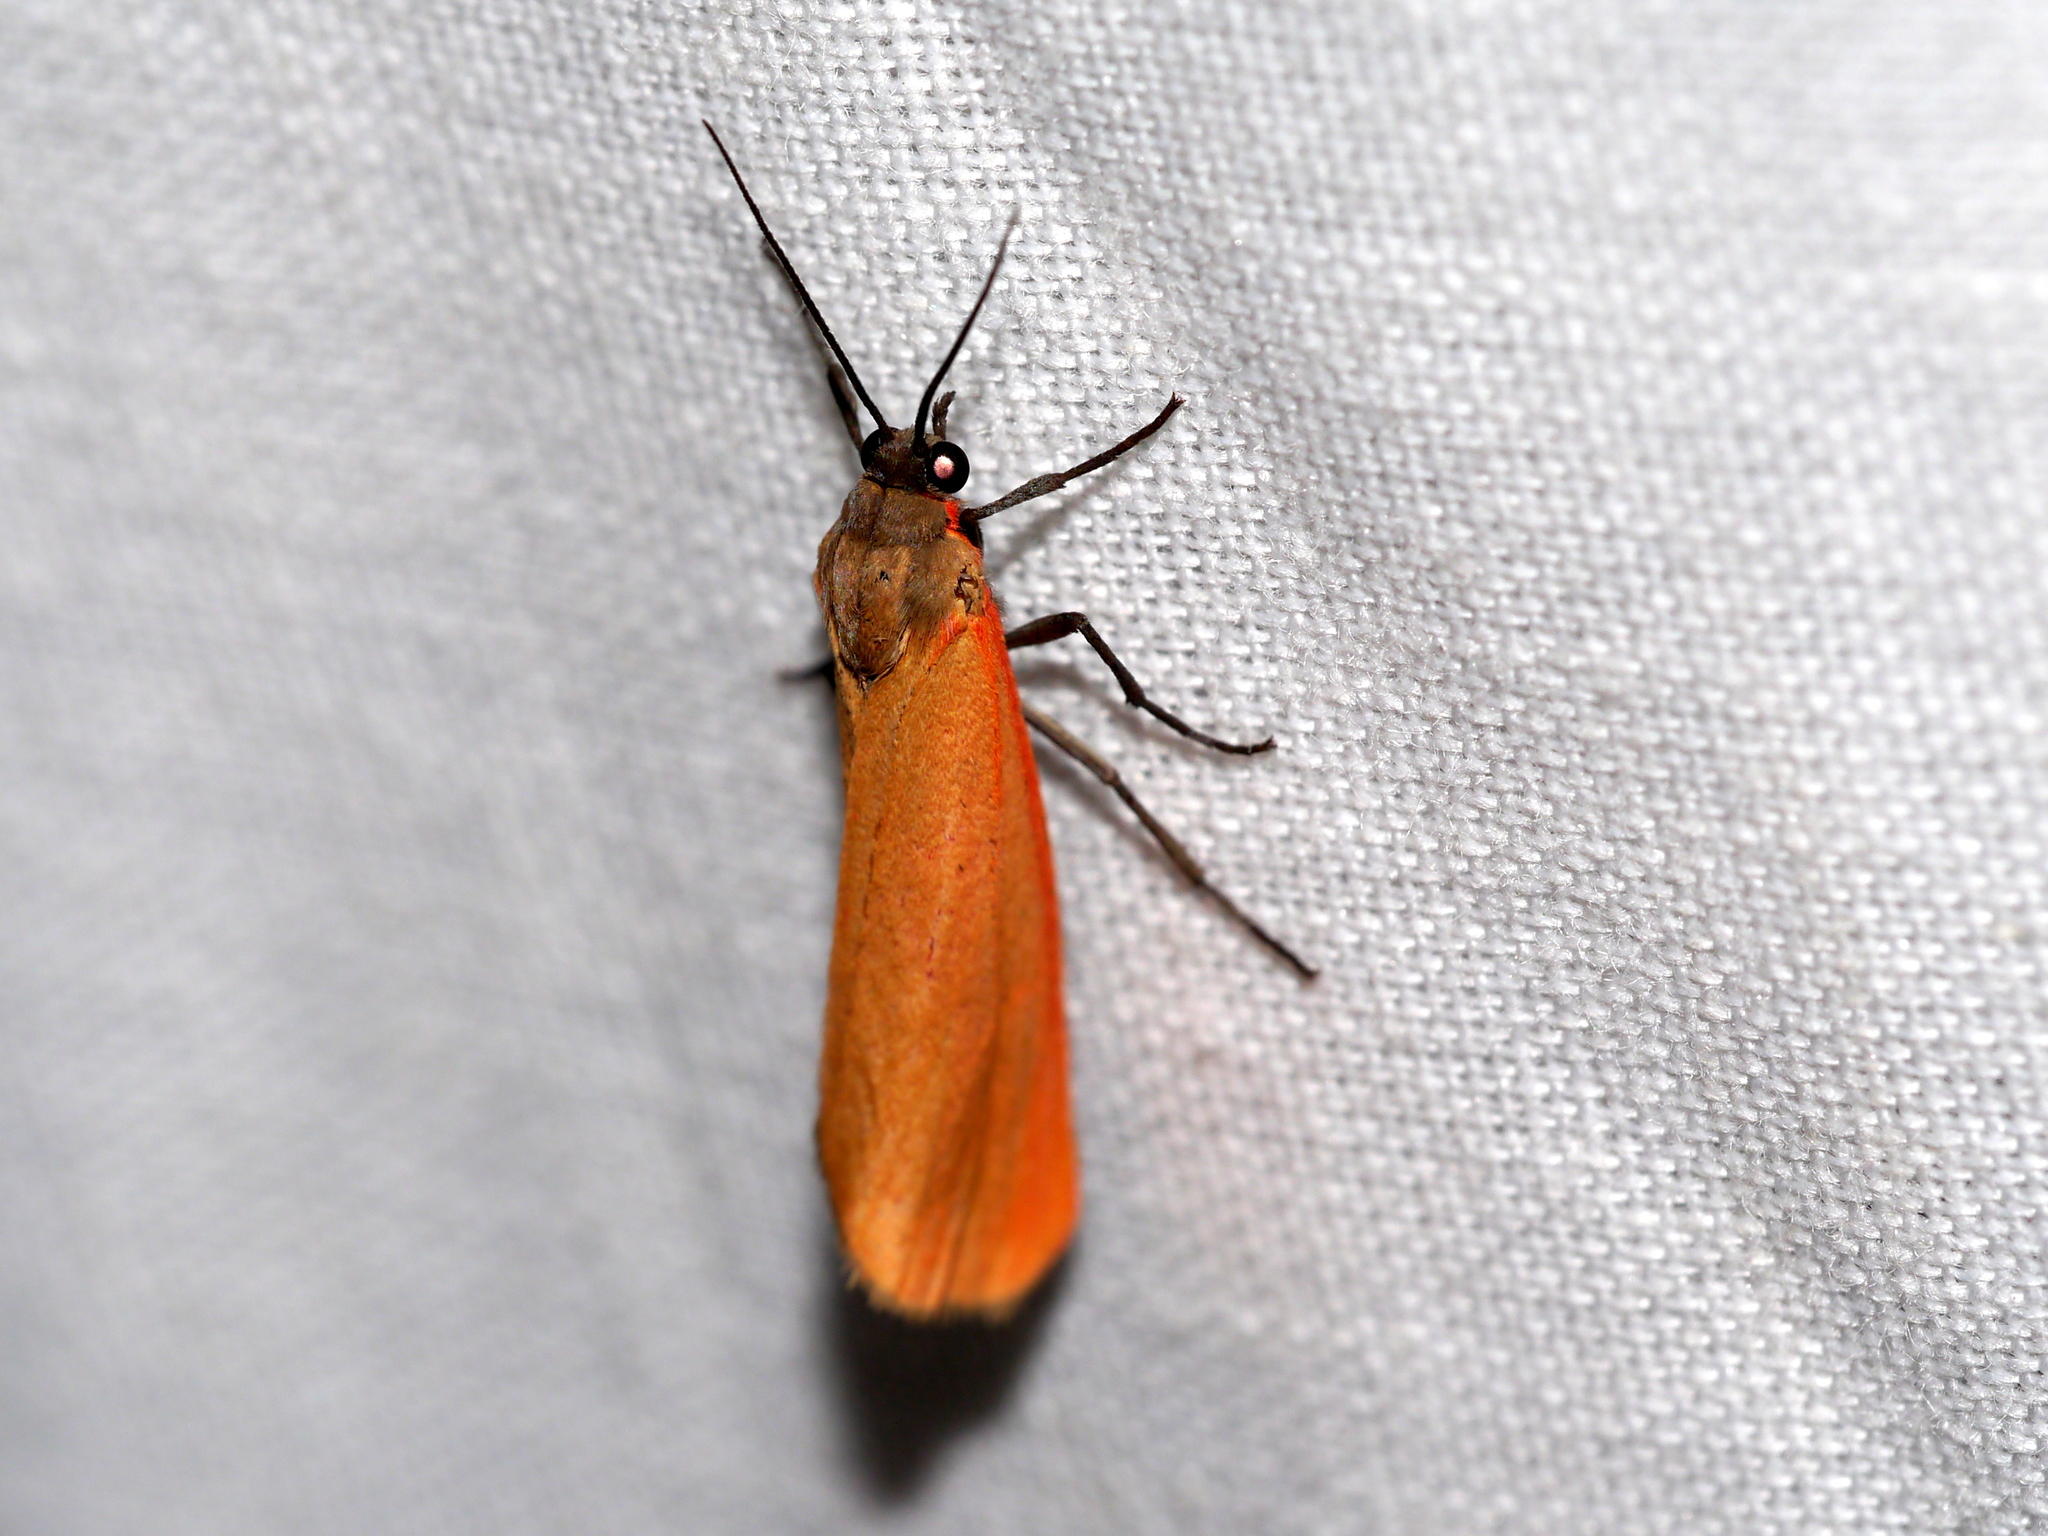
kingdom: Animalia
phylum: Arthropoda
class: Insecta
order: Lepidoptera
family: Erebidae
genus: Virbia
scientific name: Virbia ostenta
